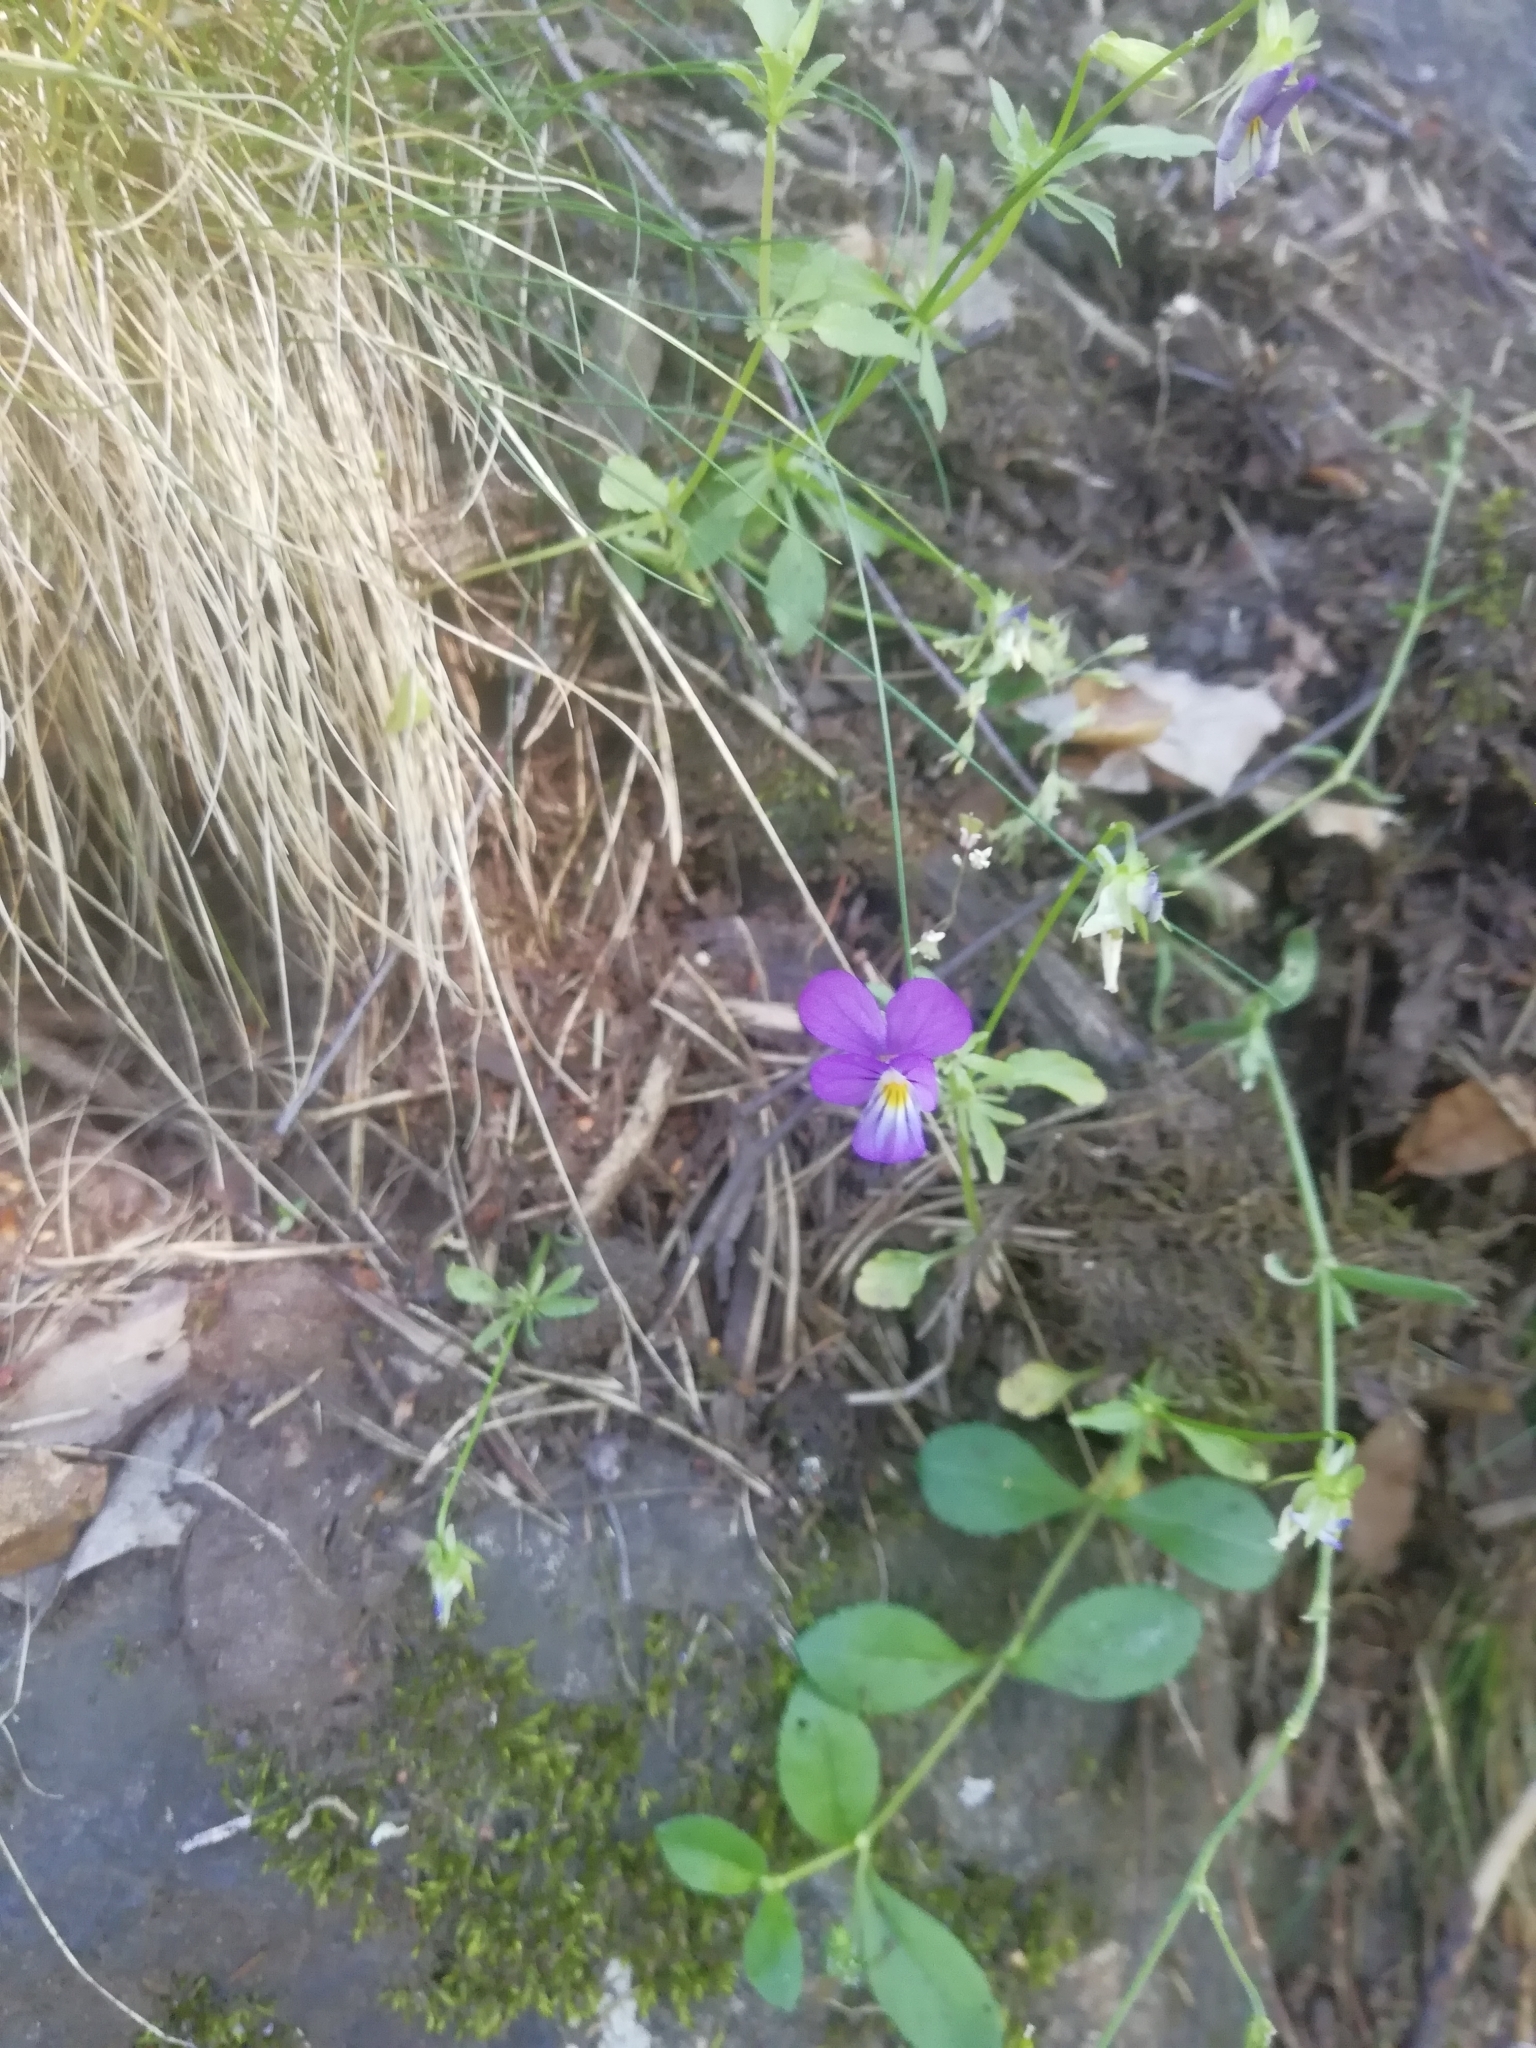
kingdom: Plantae
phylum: Tracheophyta
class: Magnoliopsida
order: Malpighiales
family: Violaceae
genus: Viola
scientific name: Viola tricolor
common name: Pansy
